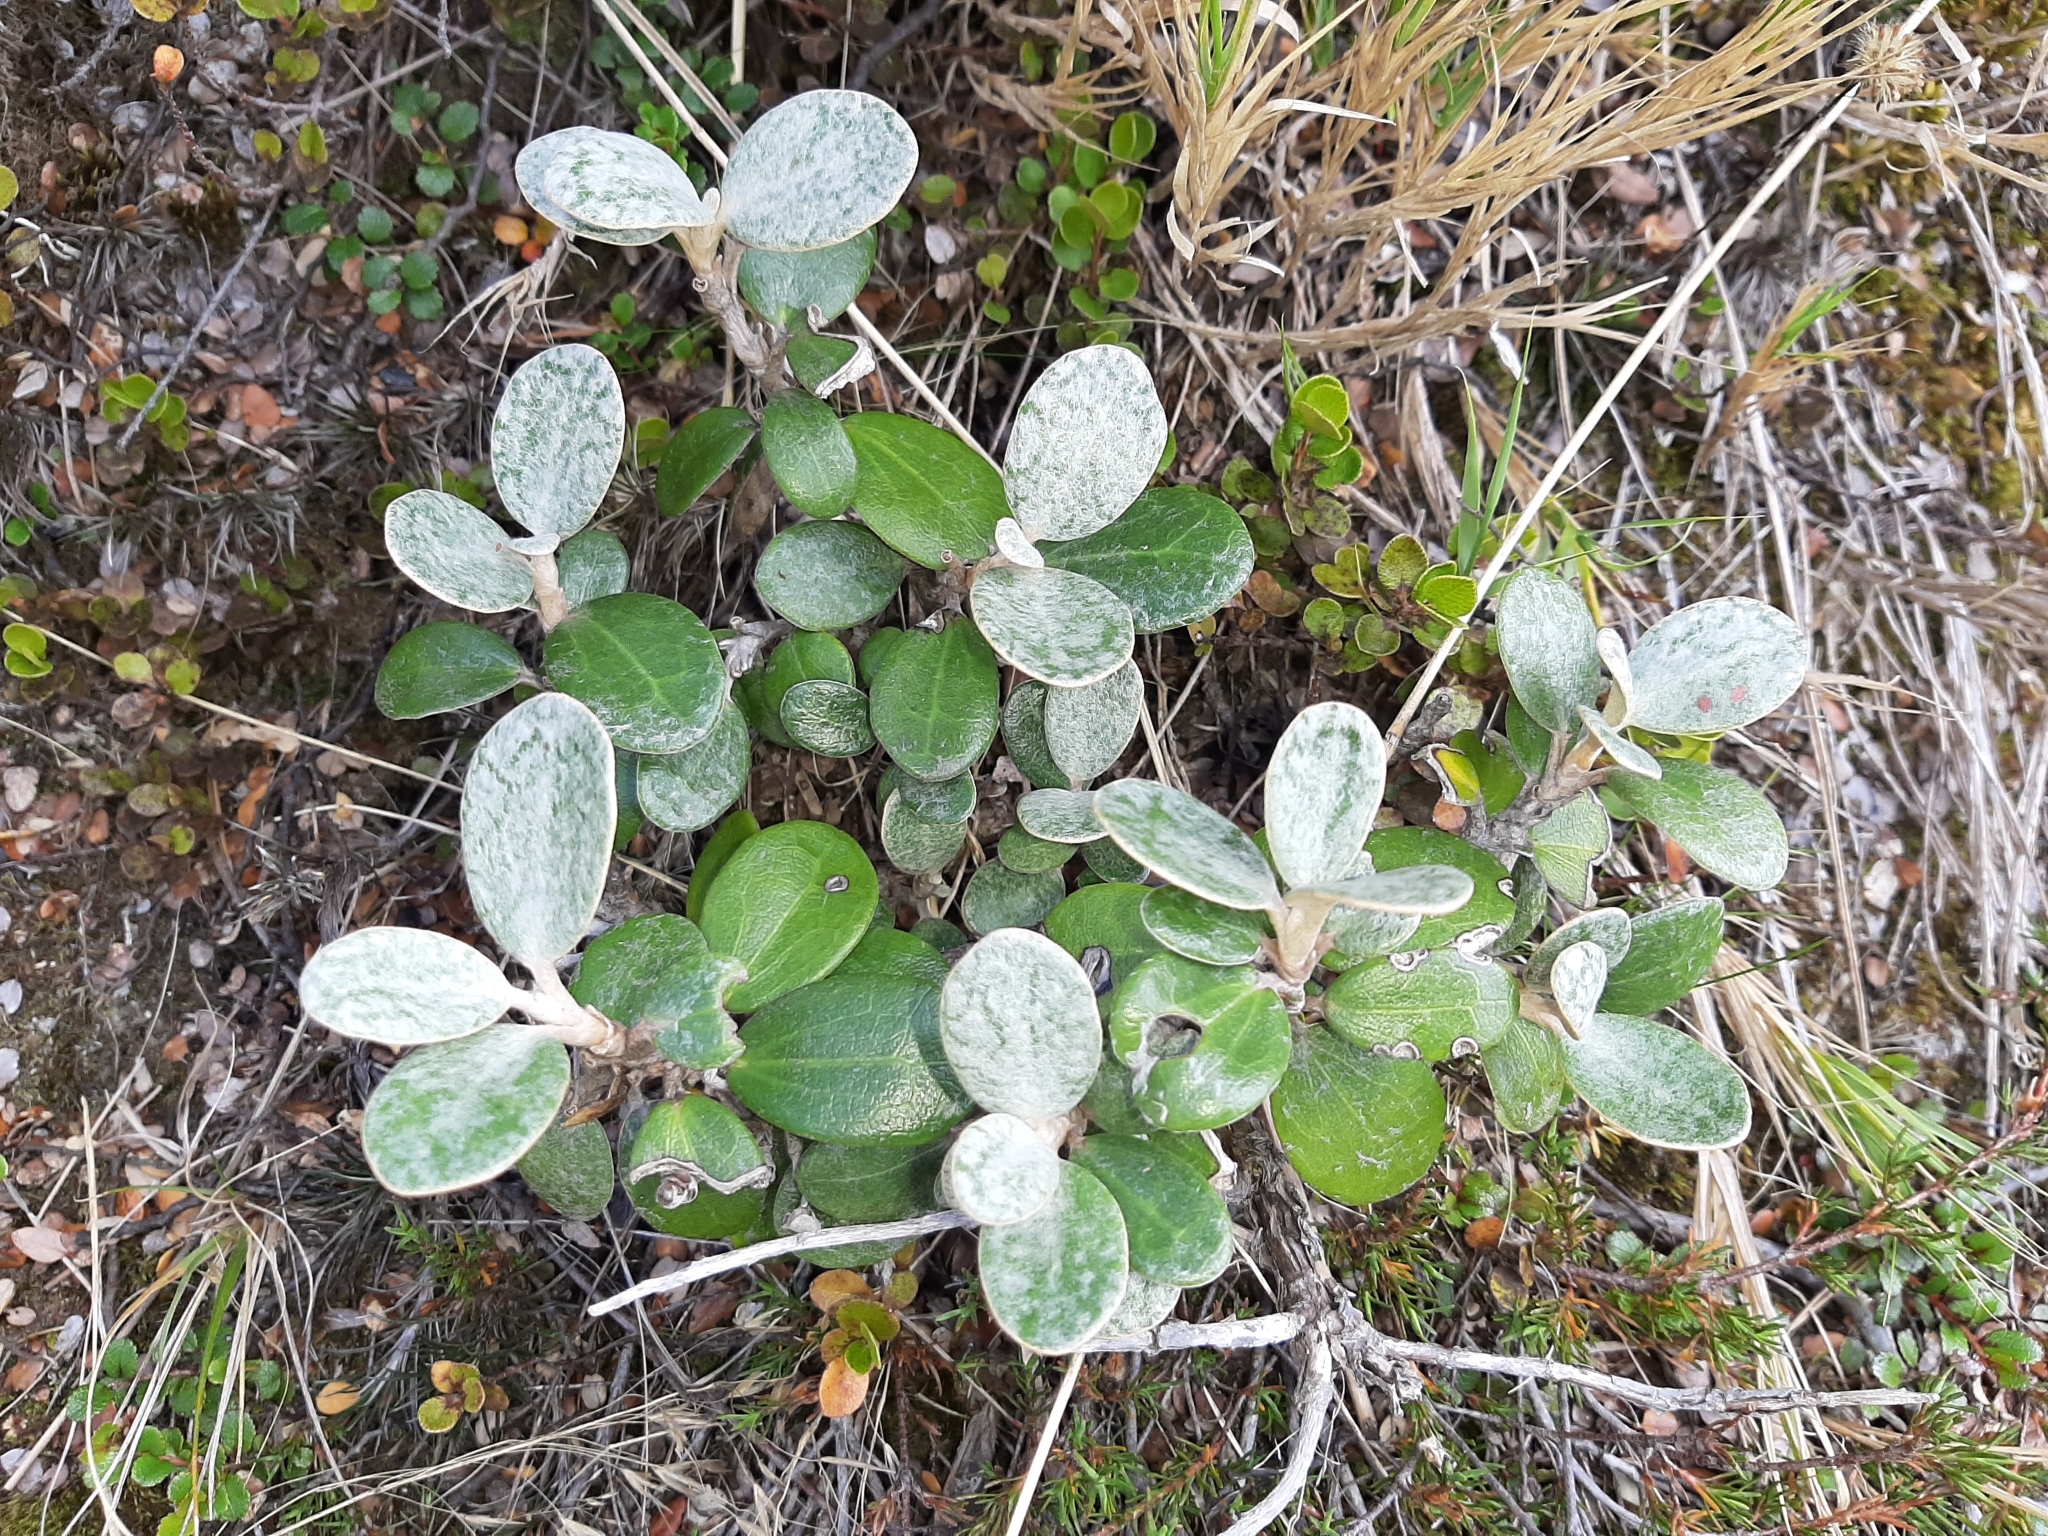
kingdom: Plantae
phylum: Tracheophyta
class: Magnoliopsida
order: Asterales
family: Asteraceae
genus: Brachyglottis
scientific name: Brachyglottis bidwillii
